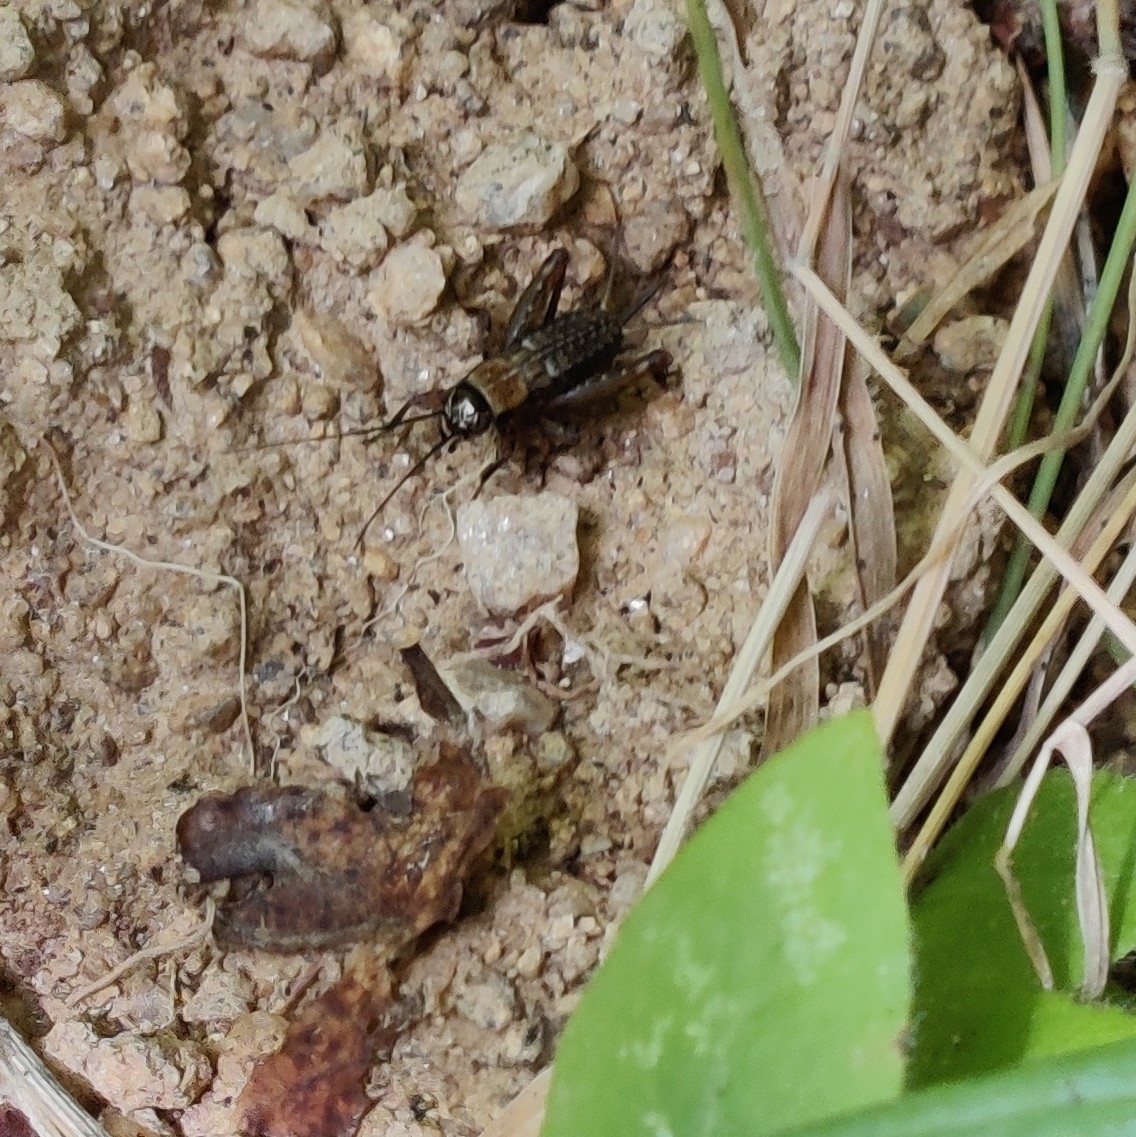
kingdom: Animalia
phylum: Arthropoda
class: Insecta
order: Orthoptera
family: Trigonidiidae
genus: Nemobius
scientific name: Nemobius sylvestris
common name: Wood-cricket
